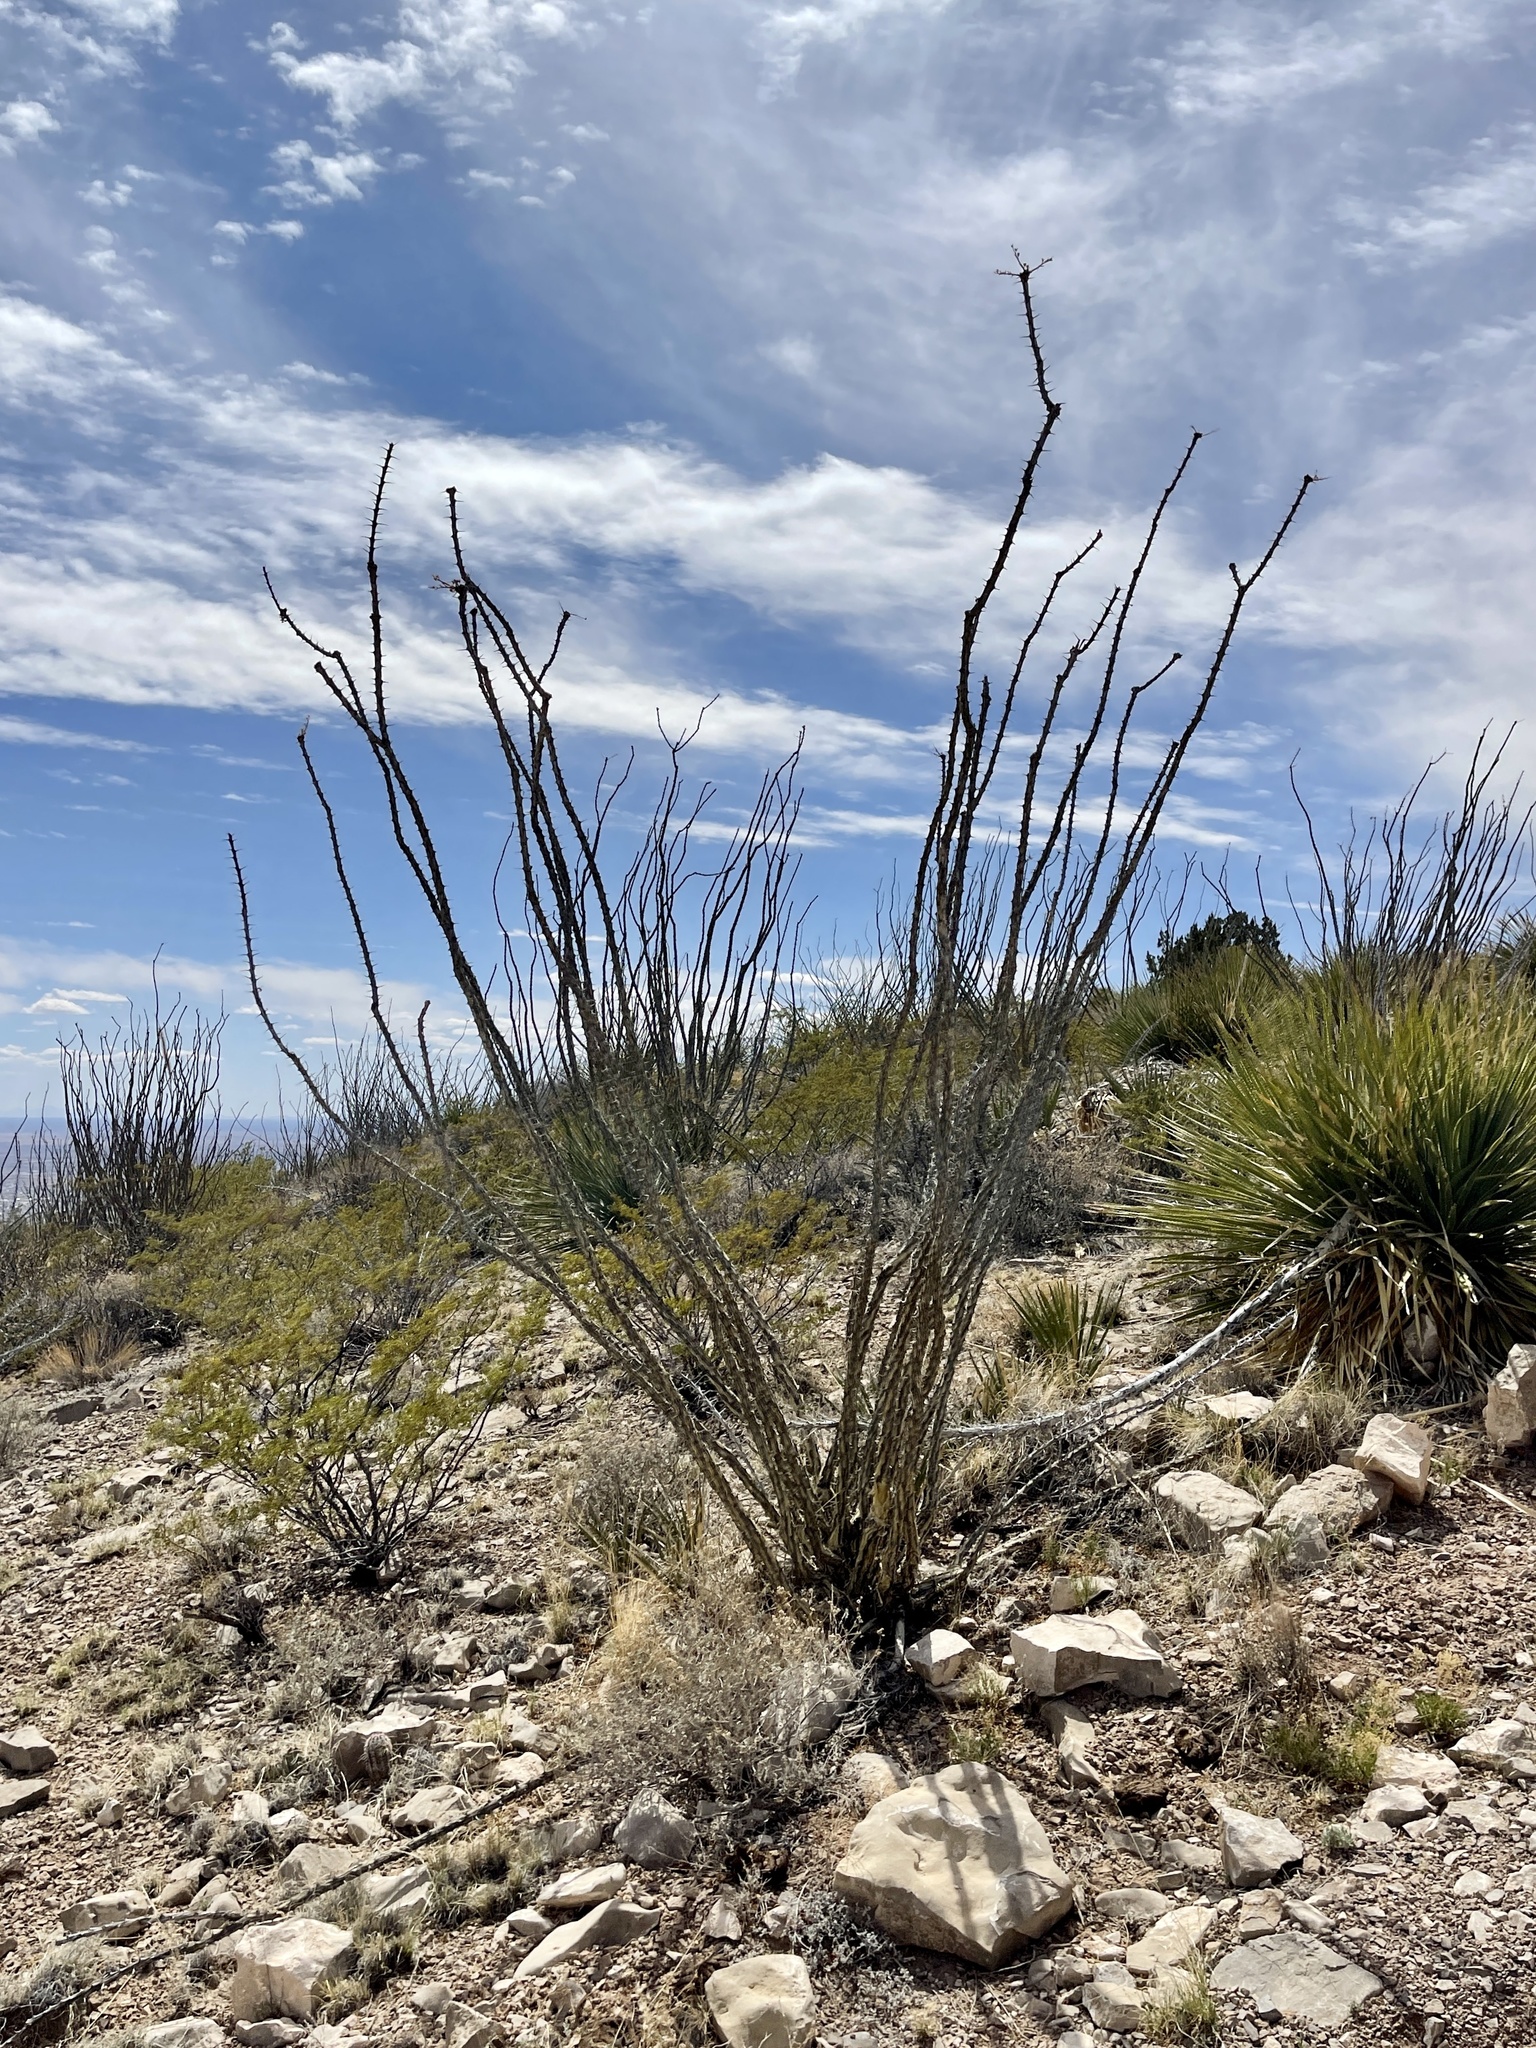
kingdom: Plantae
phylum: Tracheophyta
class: Magnoliopsida
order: Ericales
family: Fouquieriaceae
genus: Fouquieria
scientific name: Fouquieria splendens
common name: Vine-cactus
